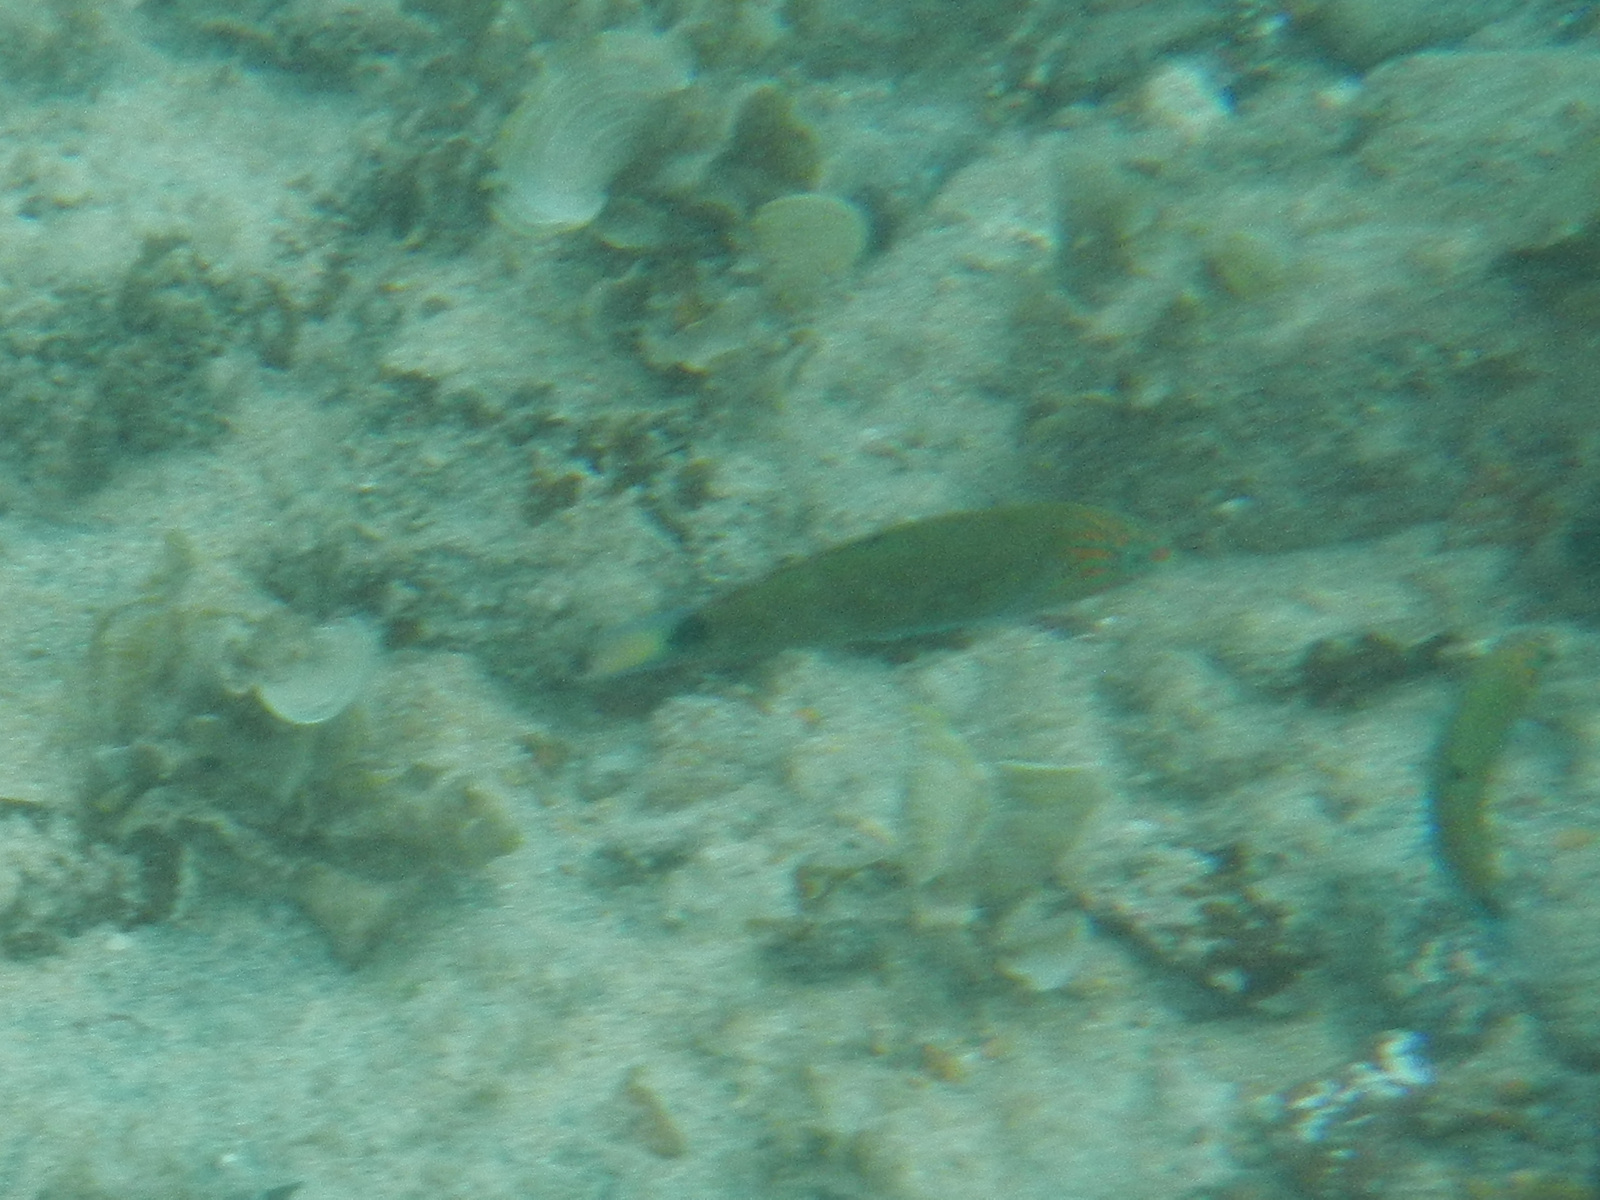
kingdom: Animalia
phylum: Chordata
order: Perciformes
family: Labridae
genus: Thalassoma
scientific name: Thalassoma lunare
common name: Blue wrasse
